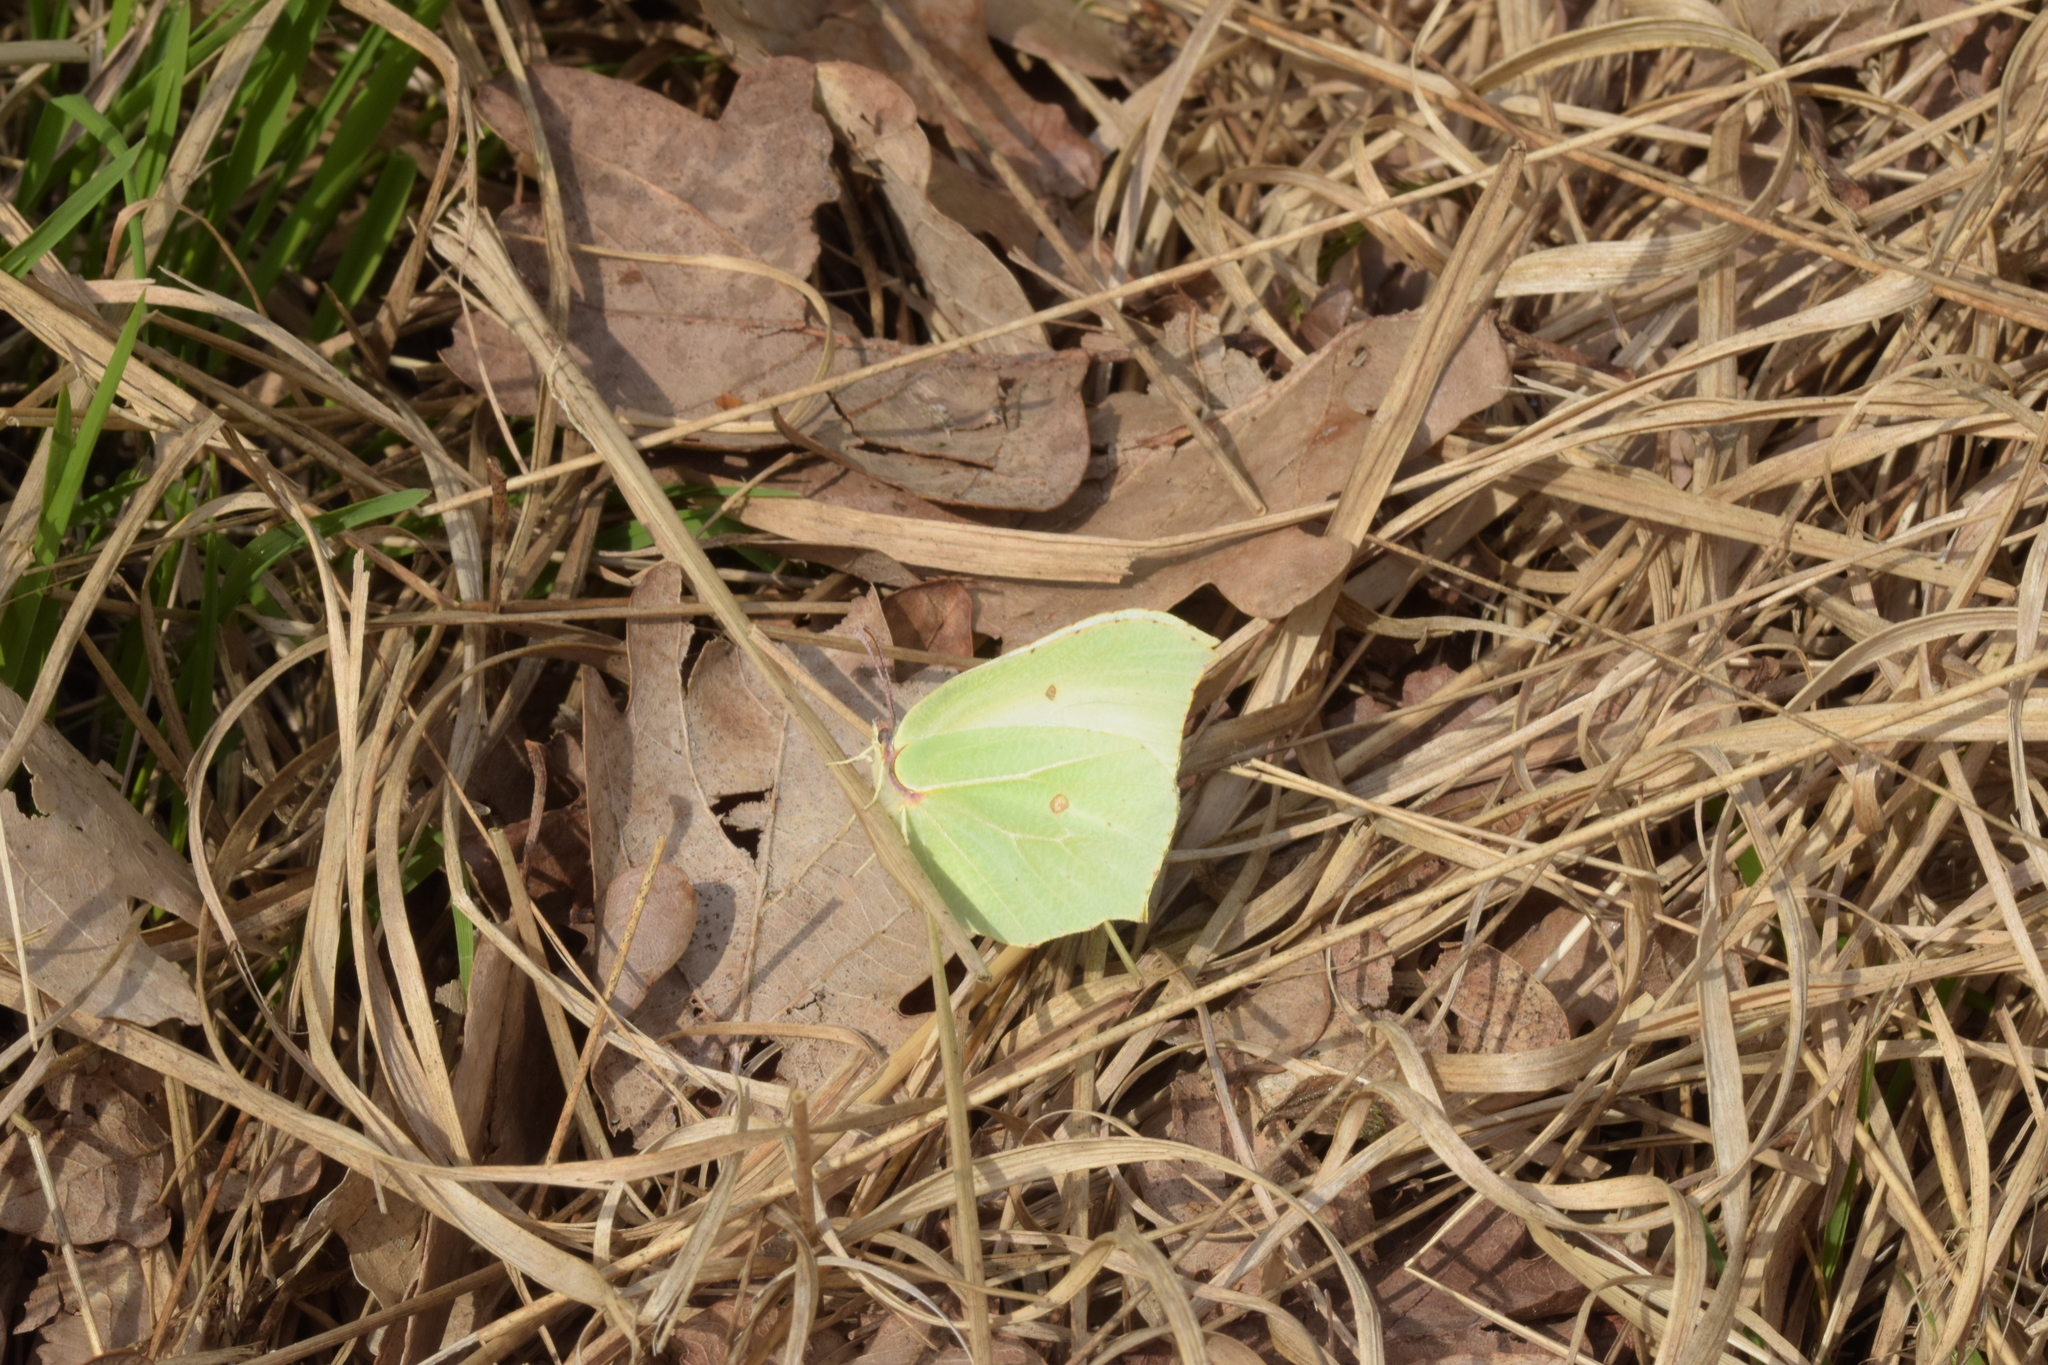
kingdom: Animalia
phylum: Arthropoda
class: Insecta
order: Lepidoptera
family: Pieridae
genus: Gonepteryx
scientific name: Gonepteryx rhamni
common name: Brimstone
